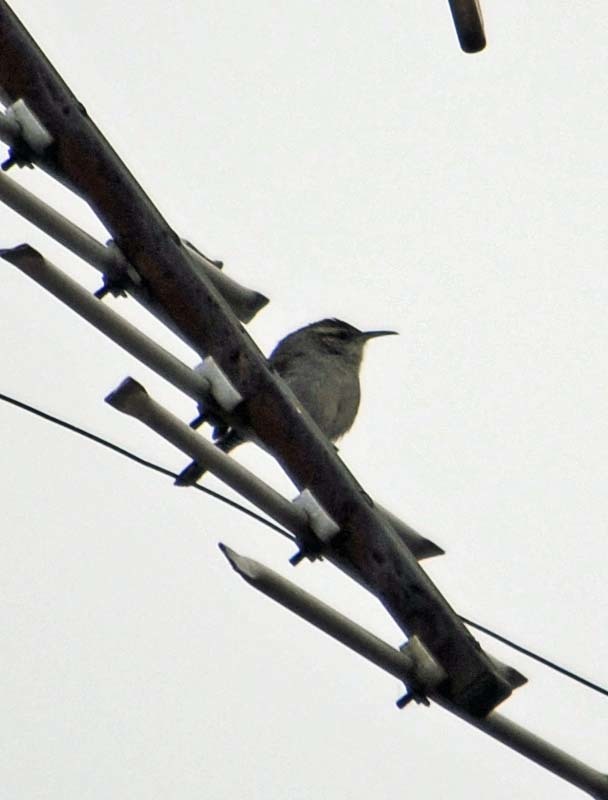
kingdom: Animalia
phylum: Chordata
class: Aves
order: Passeriformes
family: Troglodytidae
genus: Thryomanes
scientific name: Thryomanes bewickii
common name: Bewick's wren
